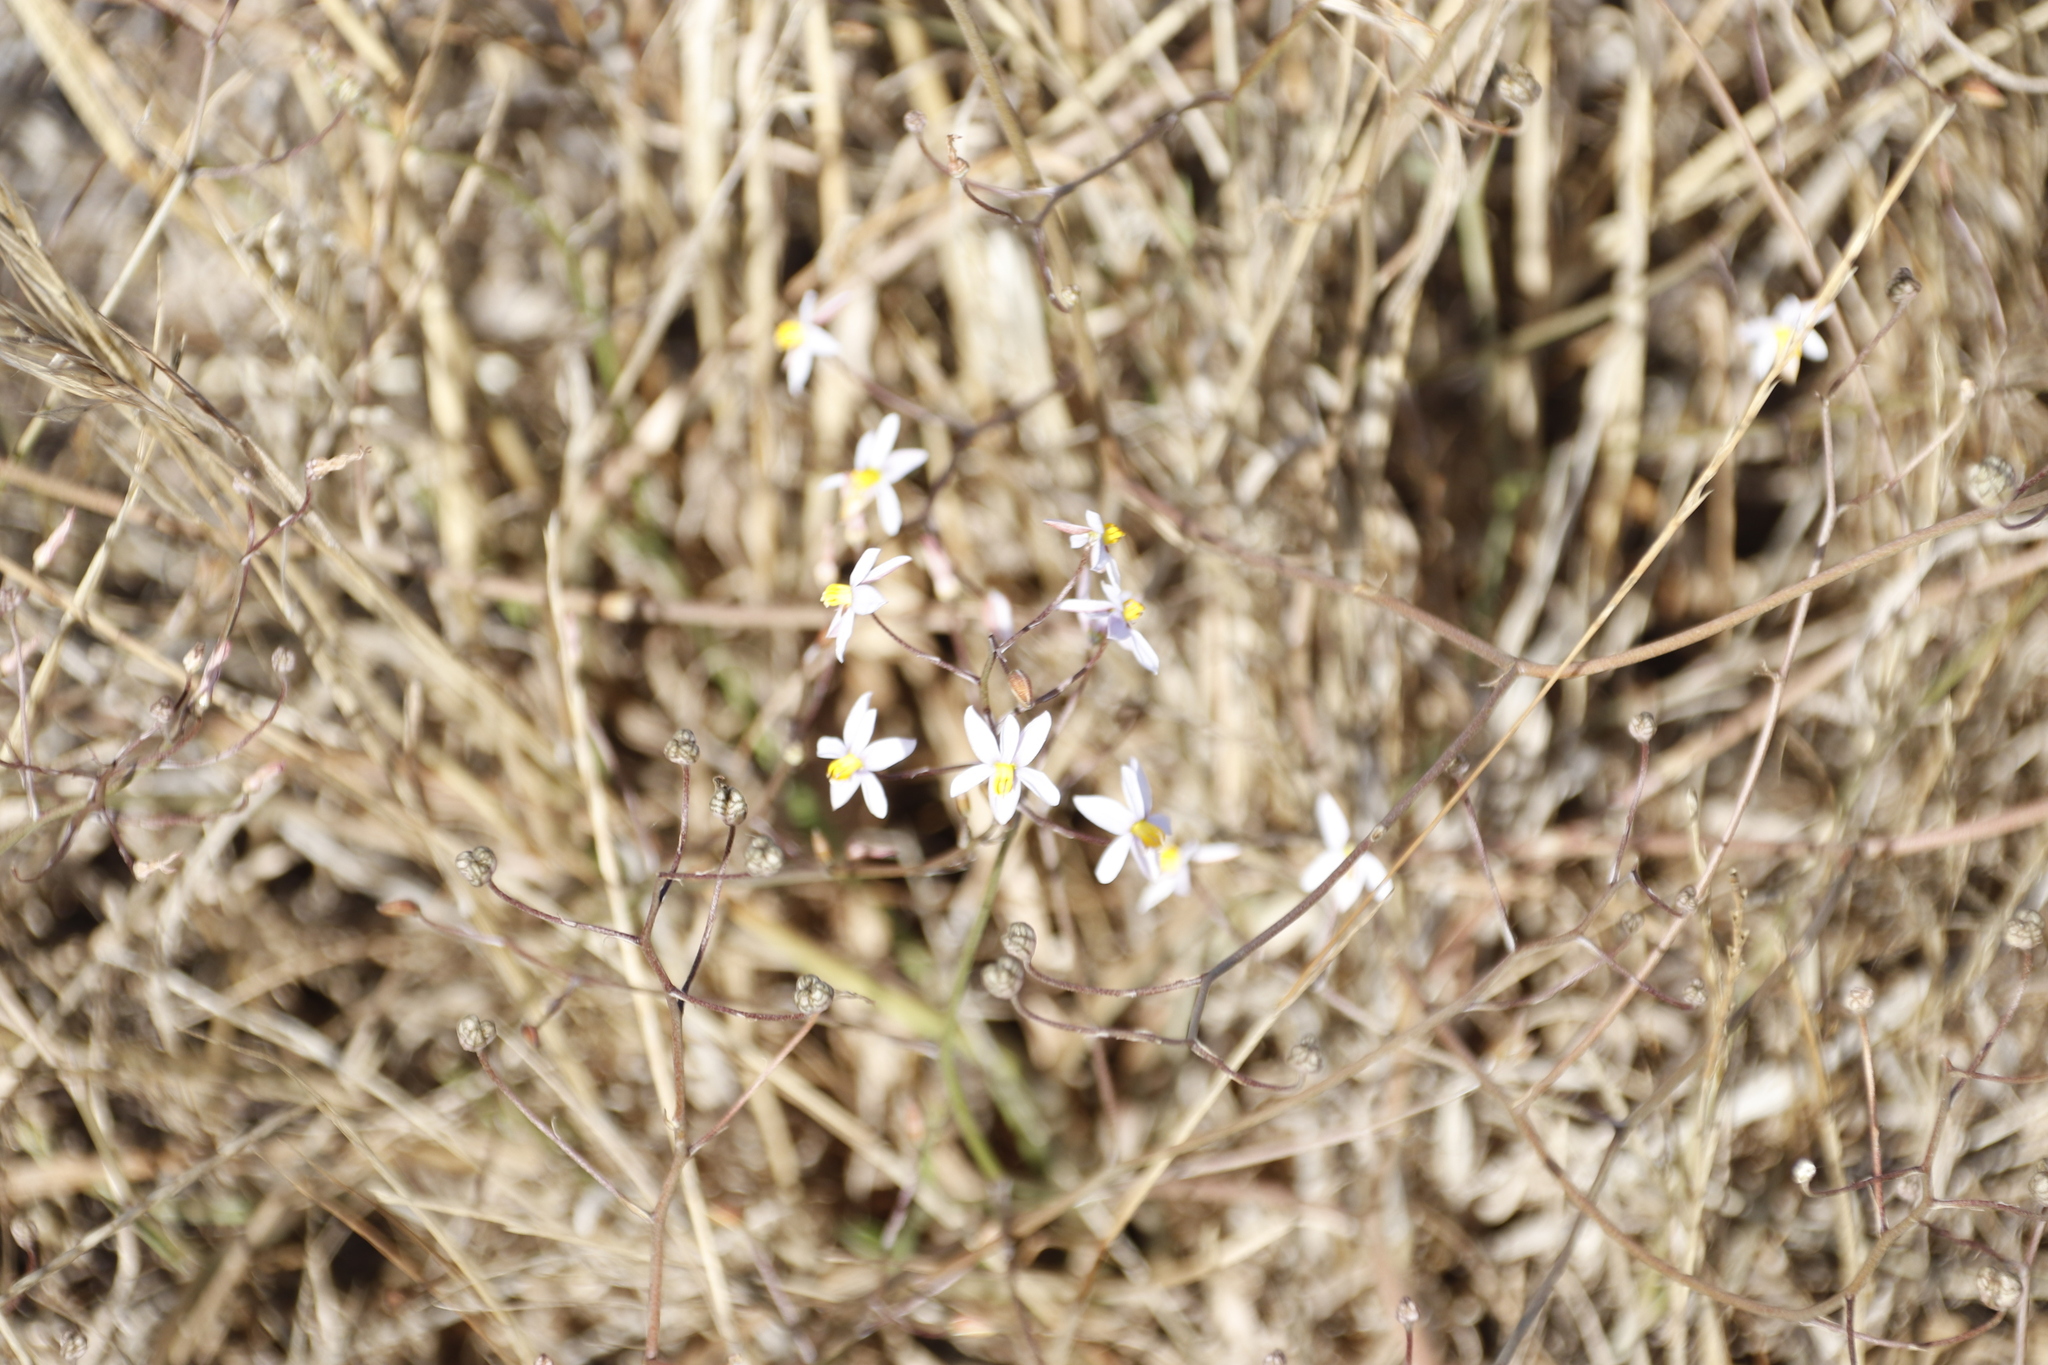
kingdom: Plantae
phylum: Tracheophyta
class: Liliopsida
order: Asparagales
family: Tecophilaeaceae
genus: Cyanella
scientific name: Cyanella hyacinthoides
